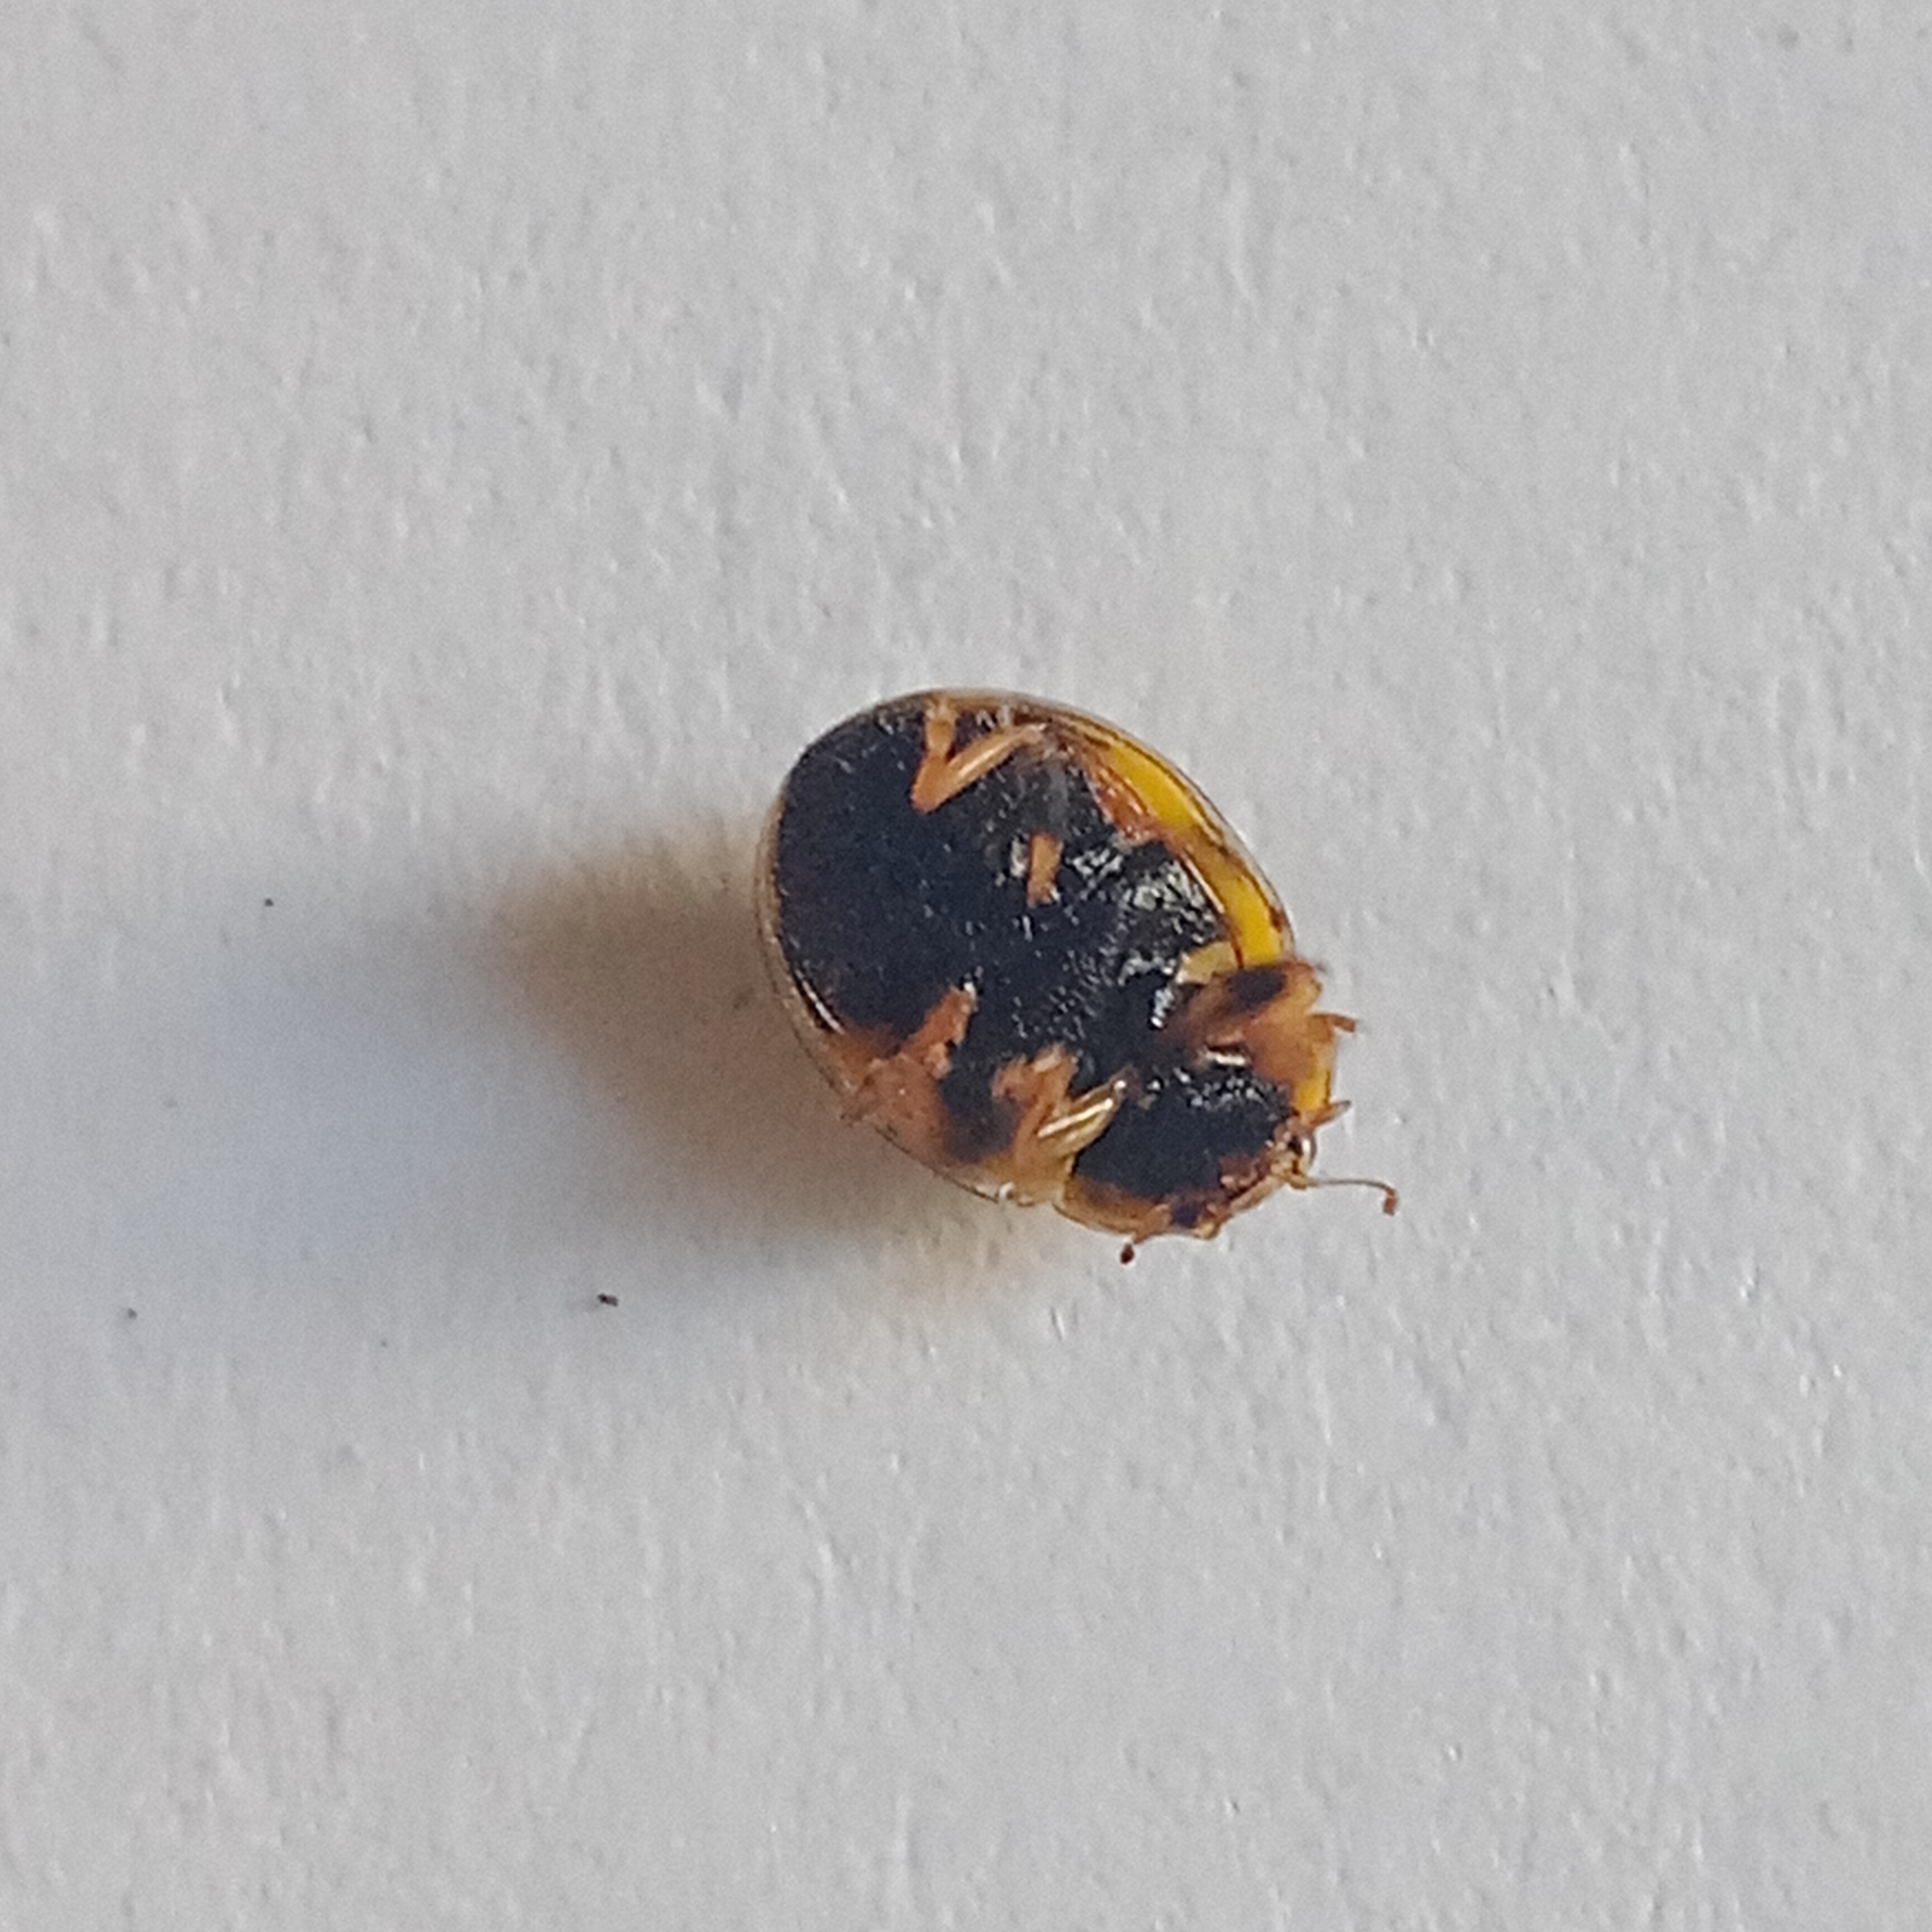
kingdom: Animalia
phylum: Arthropoda
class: Insecta
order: Coleoptera
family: Coccinellidae
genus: Propylaea
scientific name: Propylaea quatuordecimpunctata
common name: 14-spotted ladybird beetle
